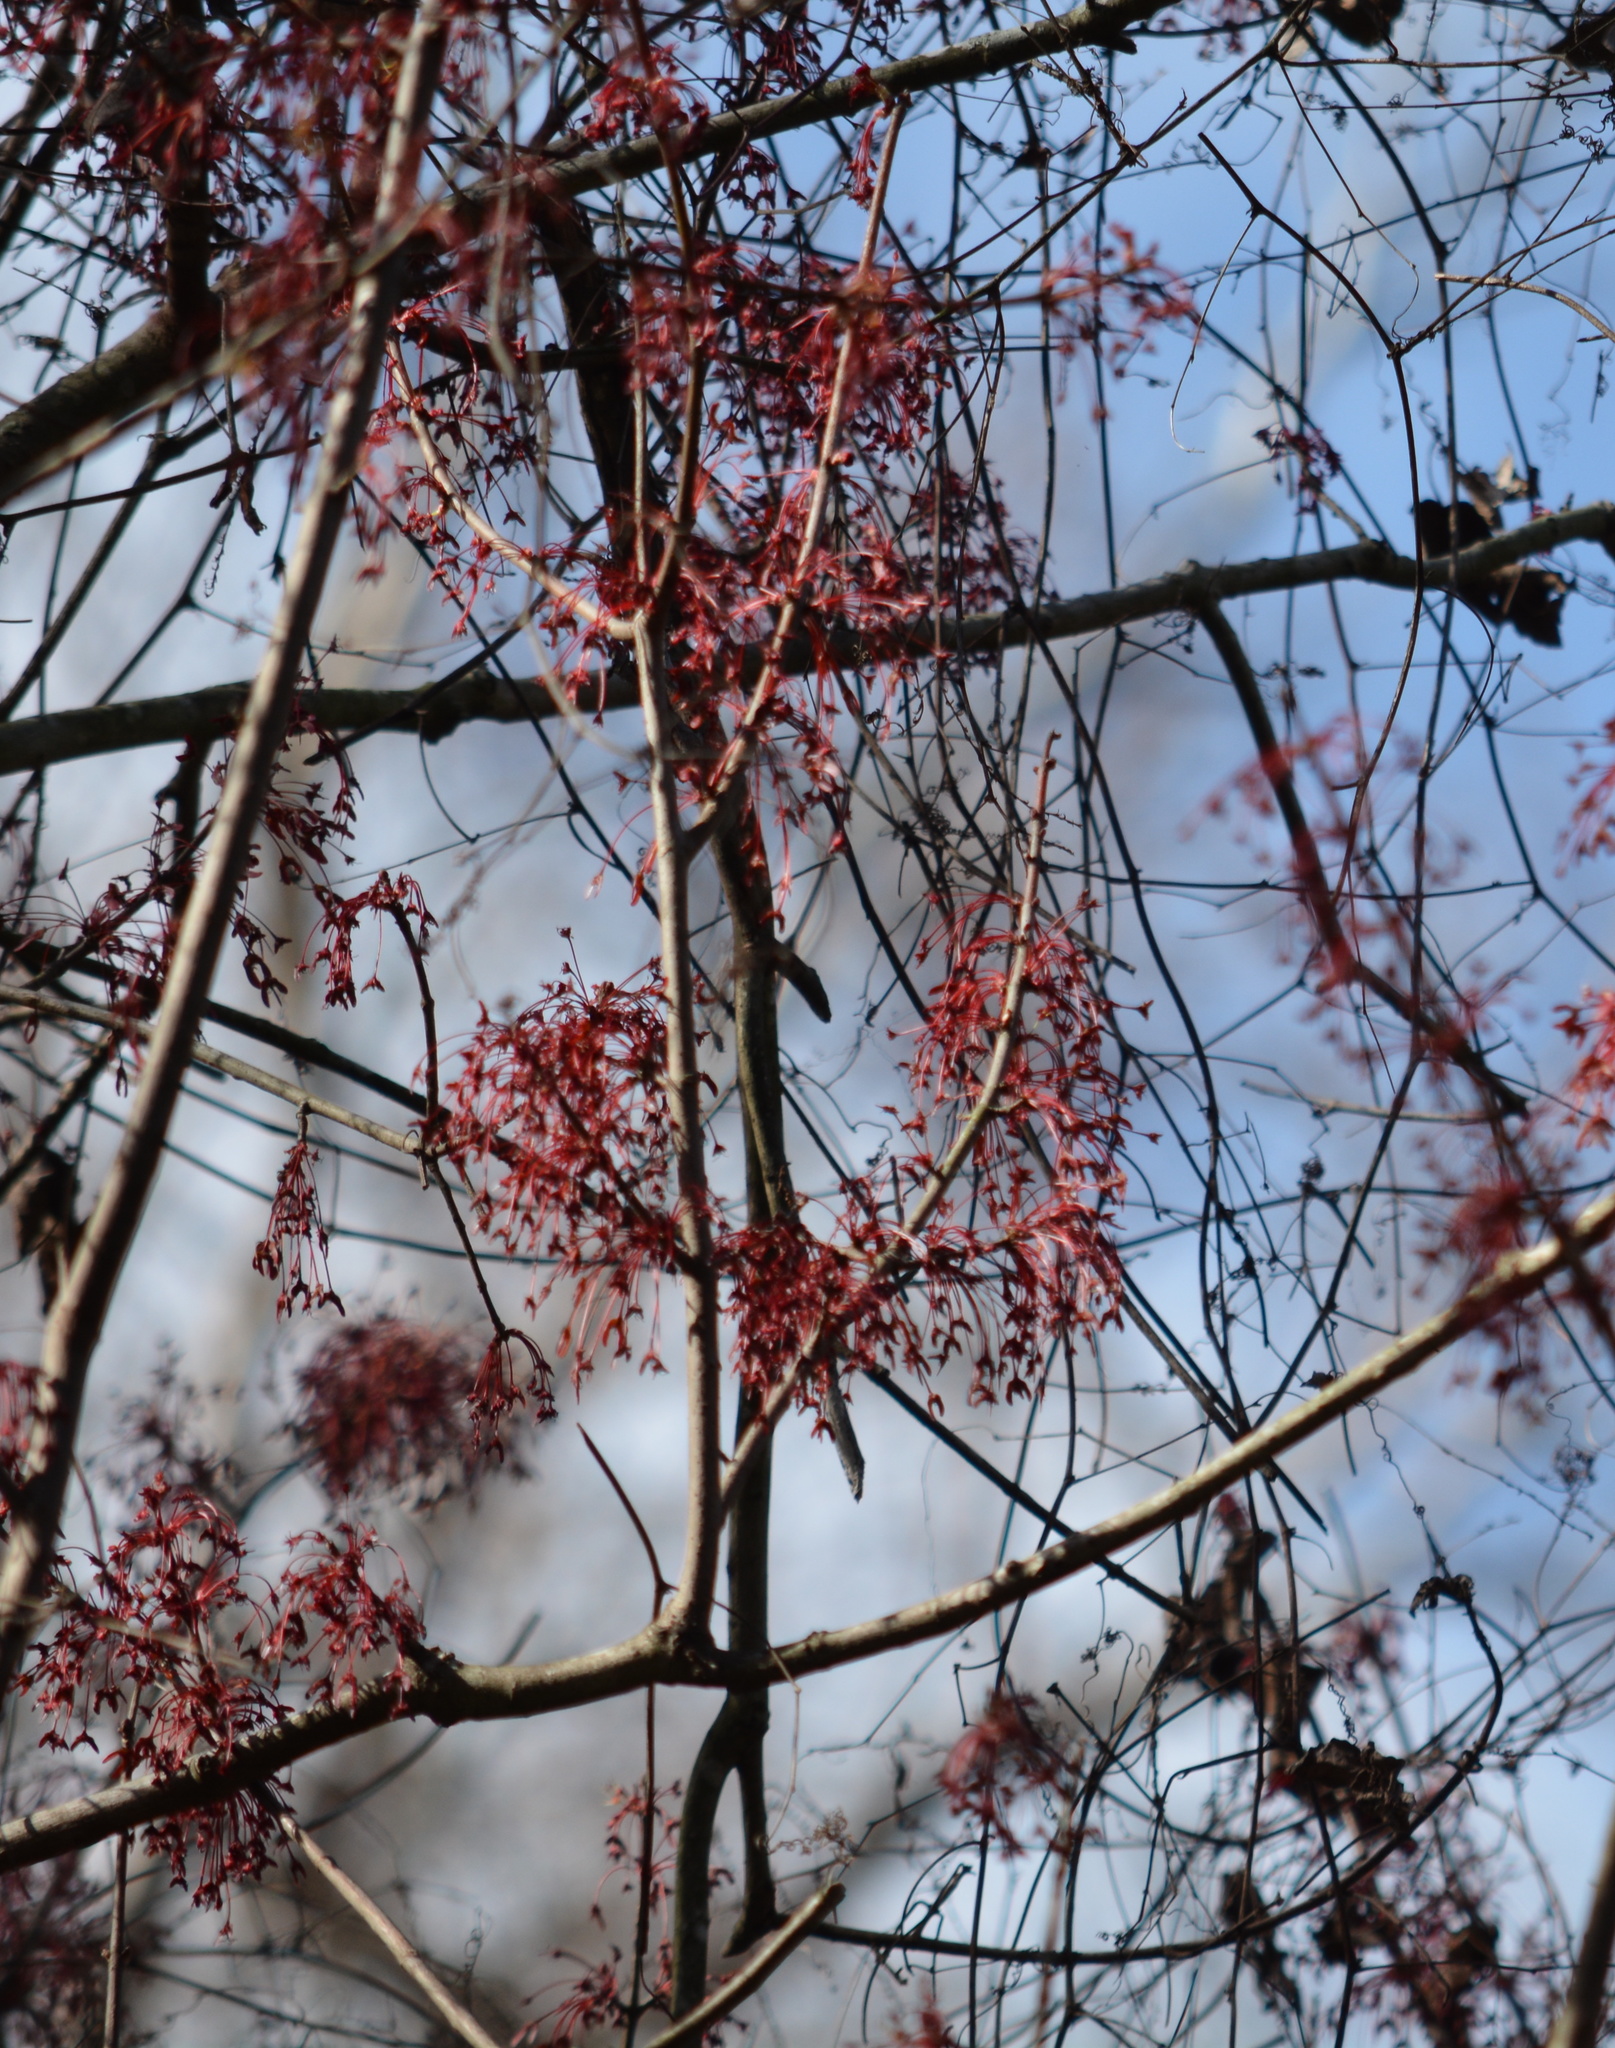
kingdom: Plantae
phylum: Tracheophyta
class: Magnoliopsida
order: Sapindales
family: Sapindaceae
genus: Acer
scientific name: Acer rubrum
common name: Red maple
